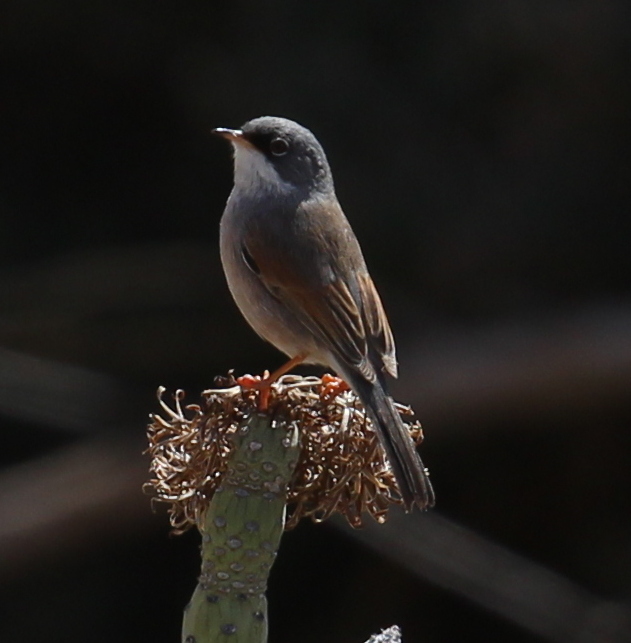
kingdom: Animalia
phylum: Chordata
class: Aves
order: Passeriformes
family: Sylviidae
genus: Sylvia
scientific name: Sylvia conspicillata
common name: Spectacled warbler
